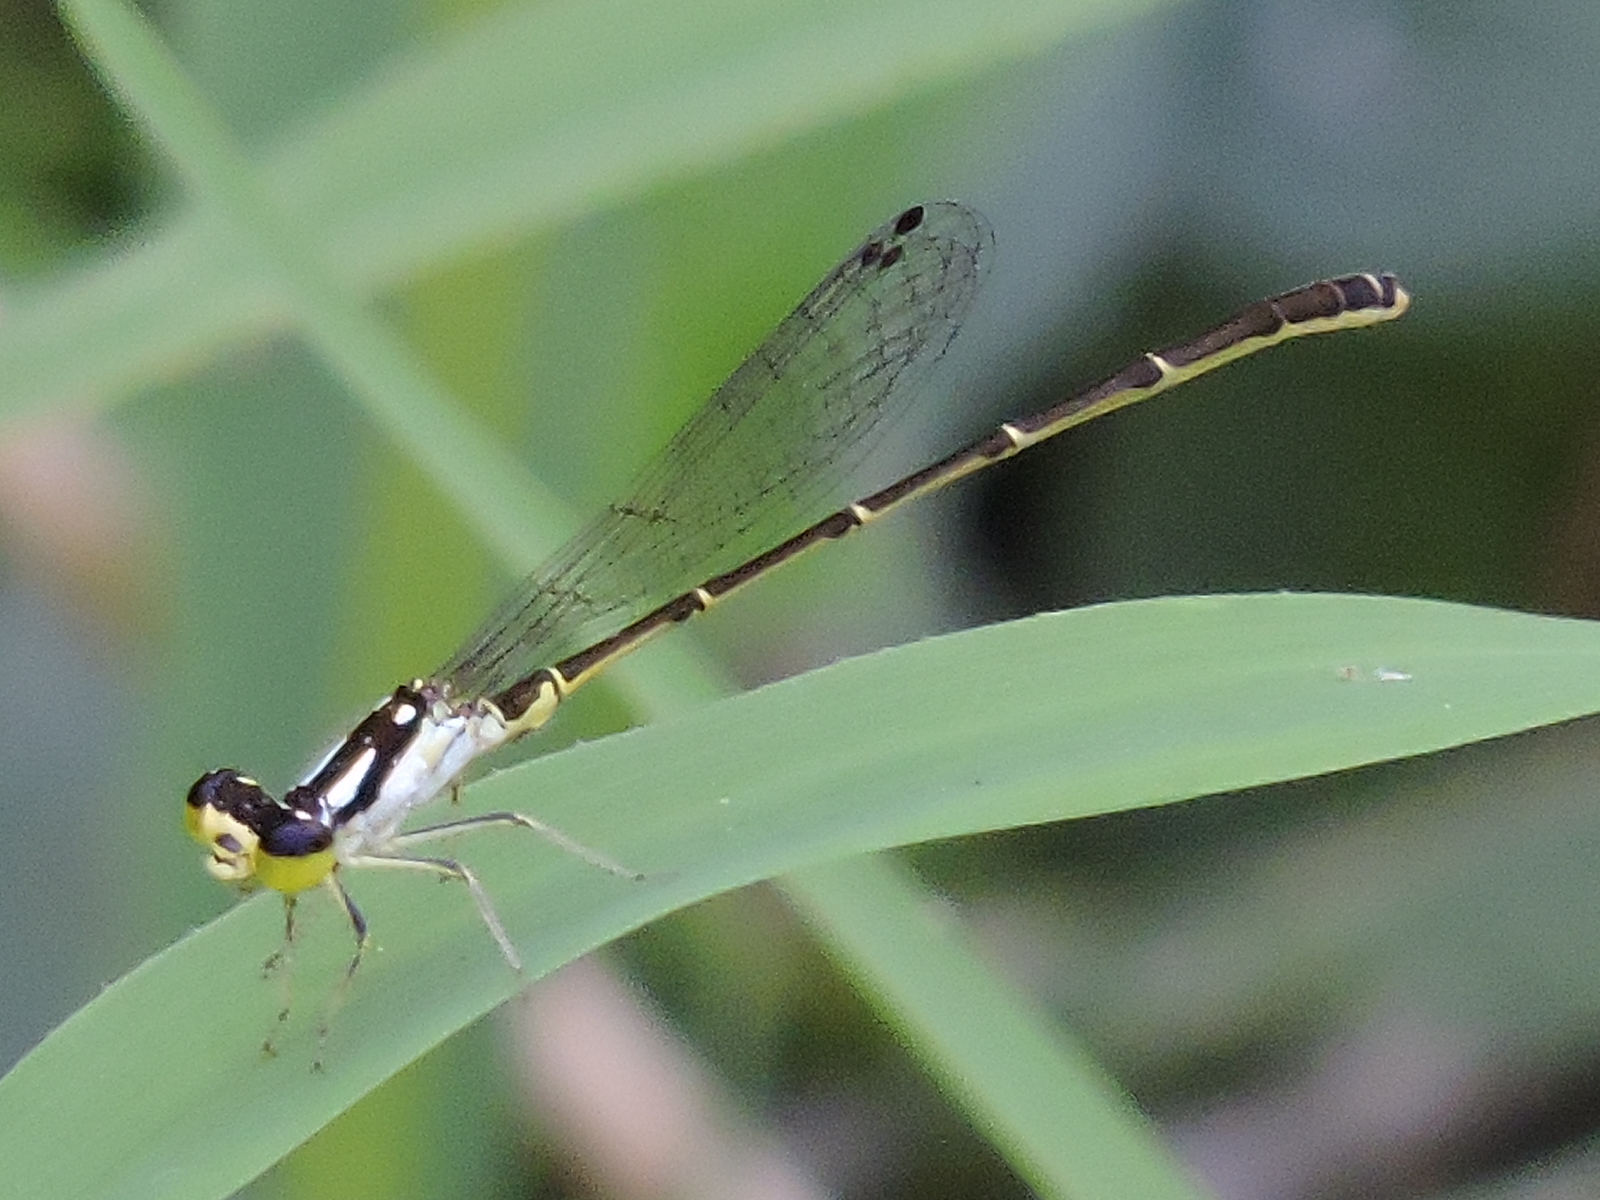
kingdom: Animalia
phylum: Arthropoda
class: Insecta
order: Odonata
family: Coenagrionidae
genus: Ischnura
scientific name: Ischnura posita
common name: Fragile forktail
